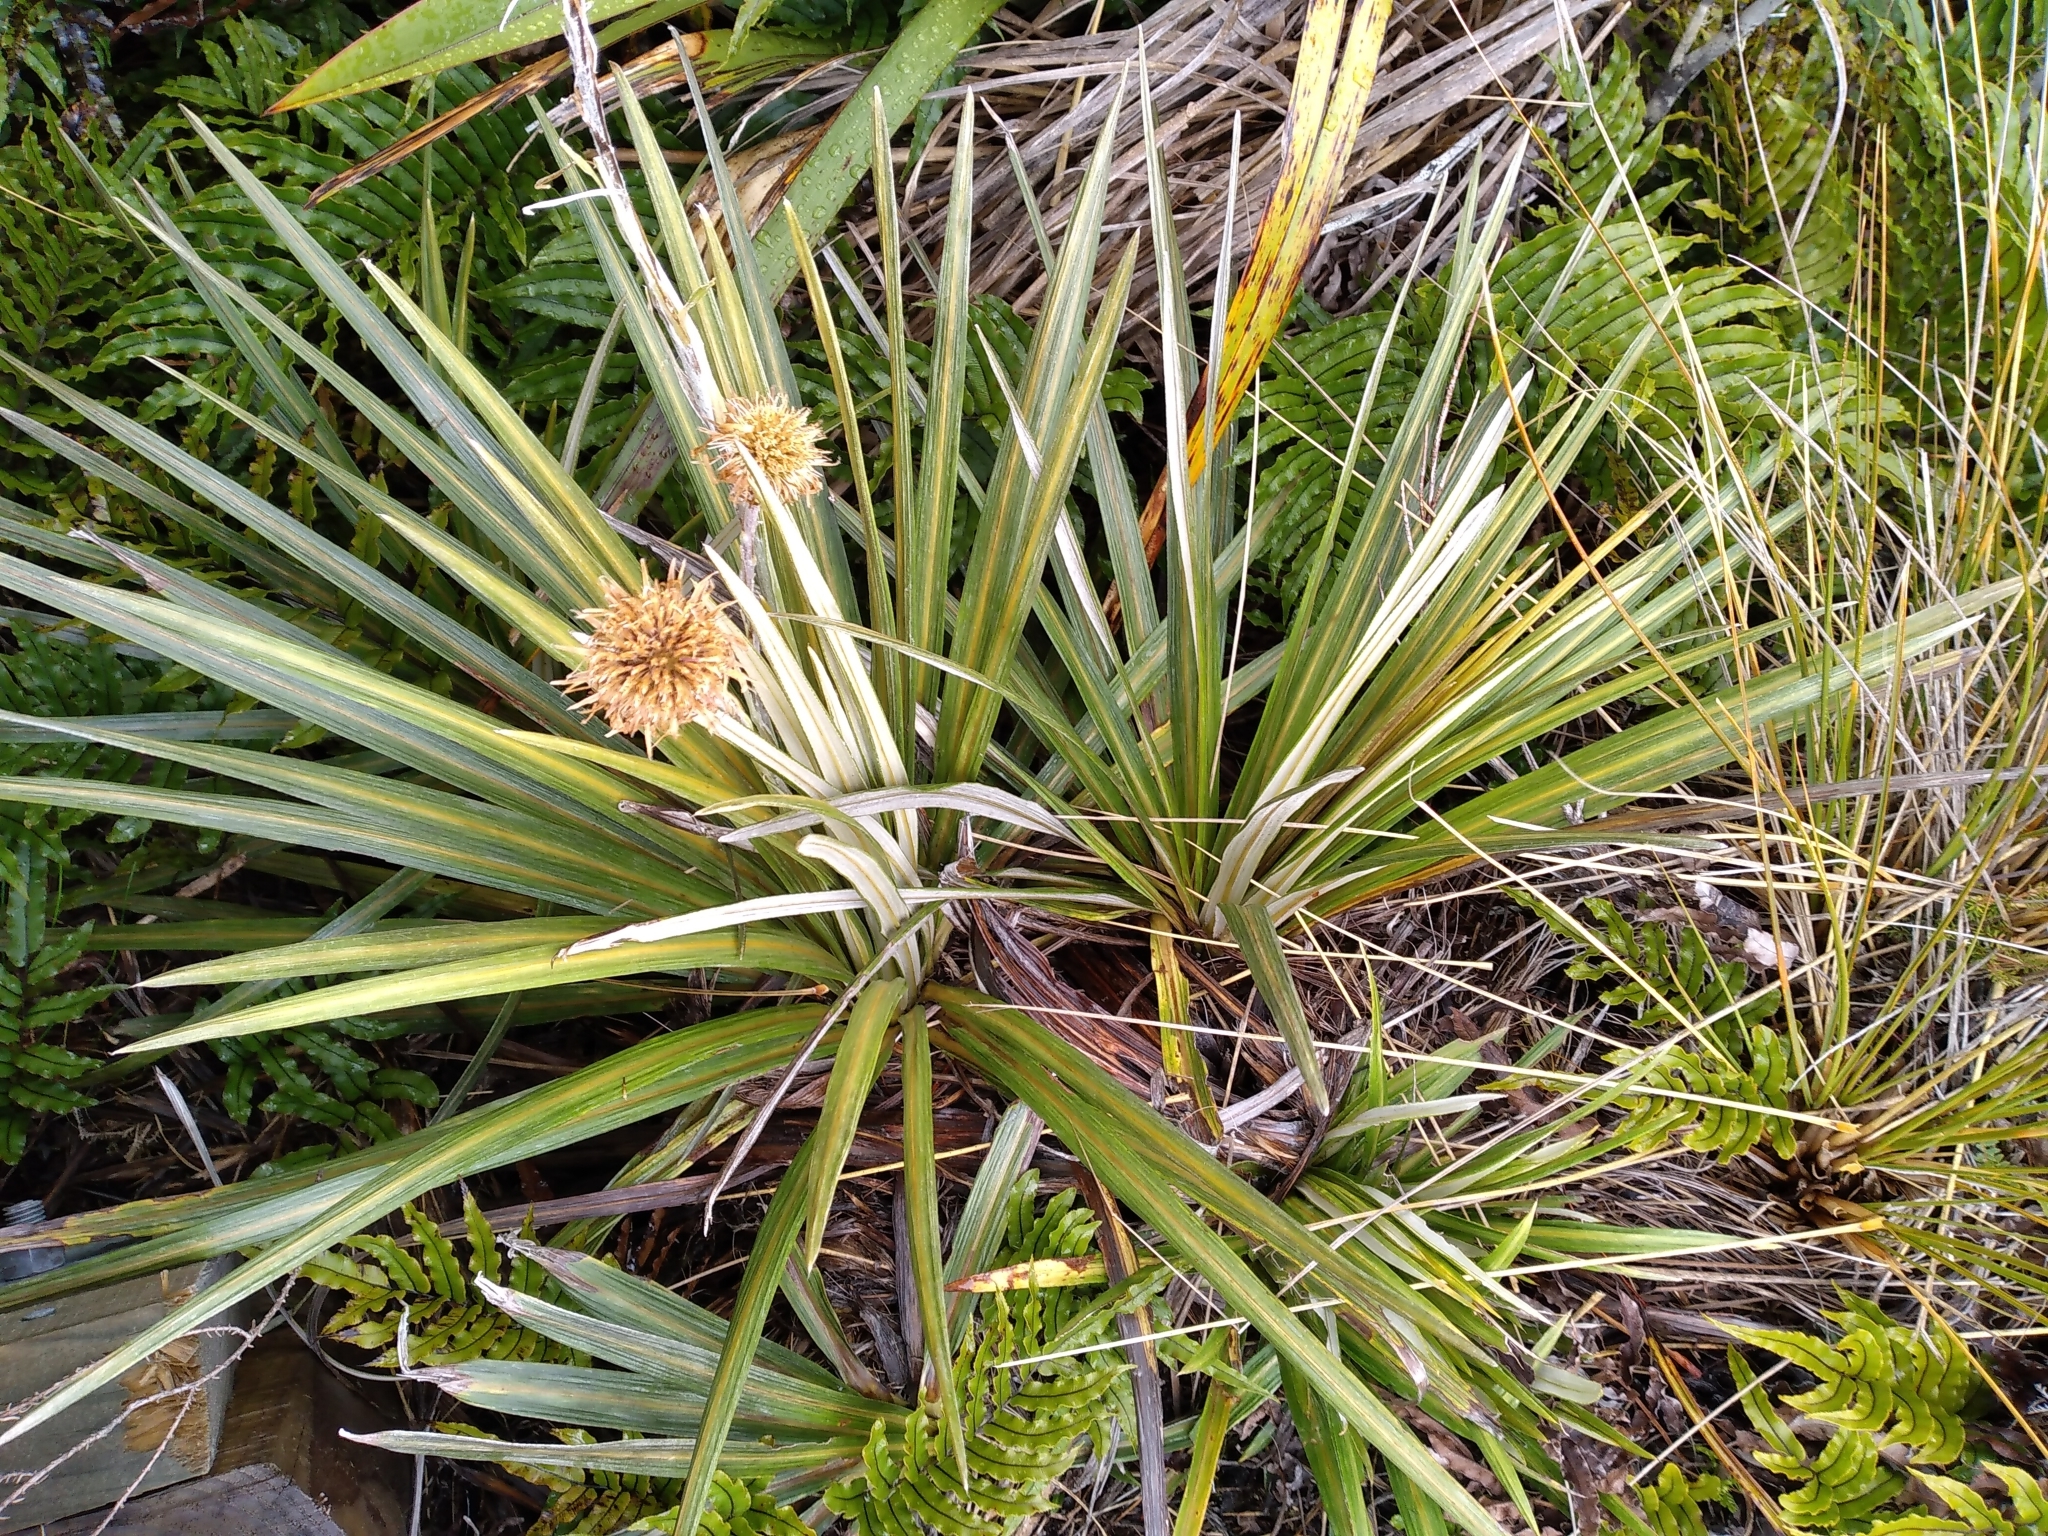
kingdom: Plantae
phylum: Tracheophyta
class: Magnoliopsida
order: Asterales
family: Asteraceae
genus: Celmisia
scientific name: Celmisia armstrongii
